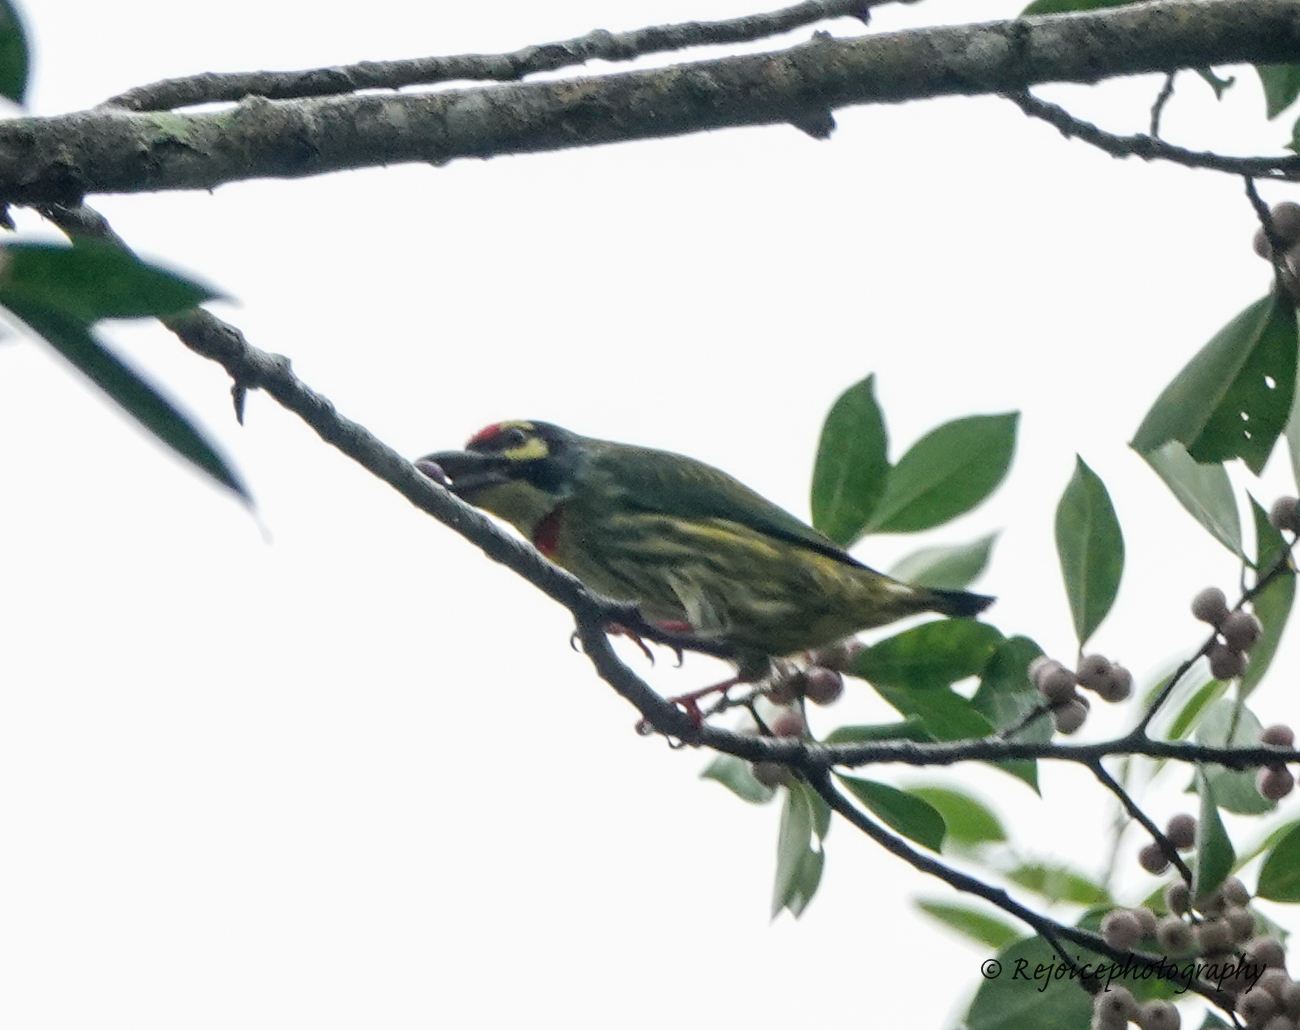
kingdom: Animalia
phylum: Chordata
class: Aves
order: Piciformes
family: Megalaimidae
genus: Psilopogon
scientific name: Psilopogon haemacephalus
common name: Coppersmith barbet
